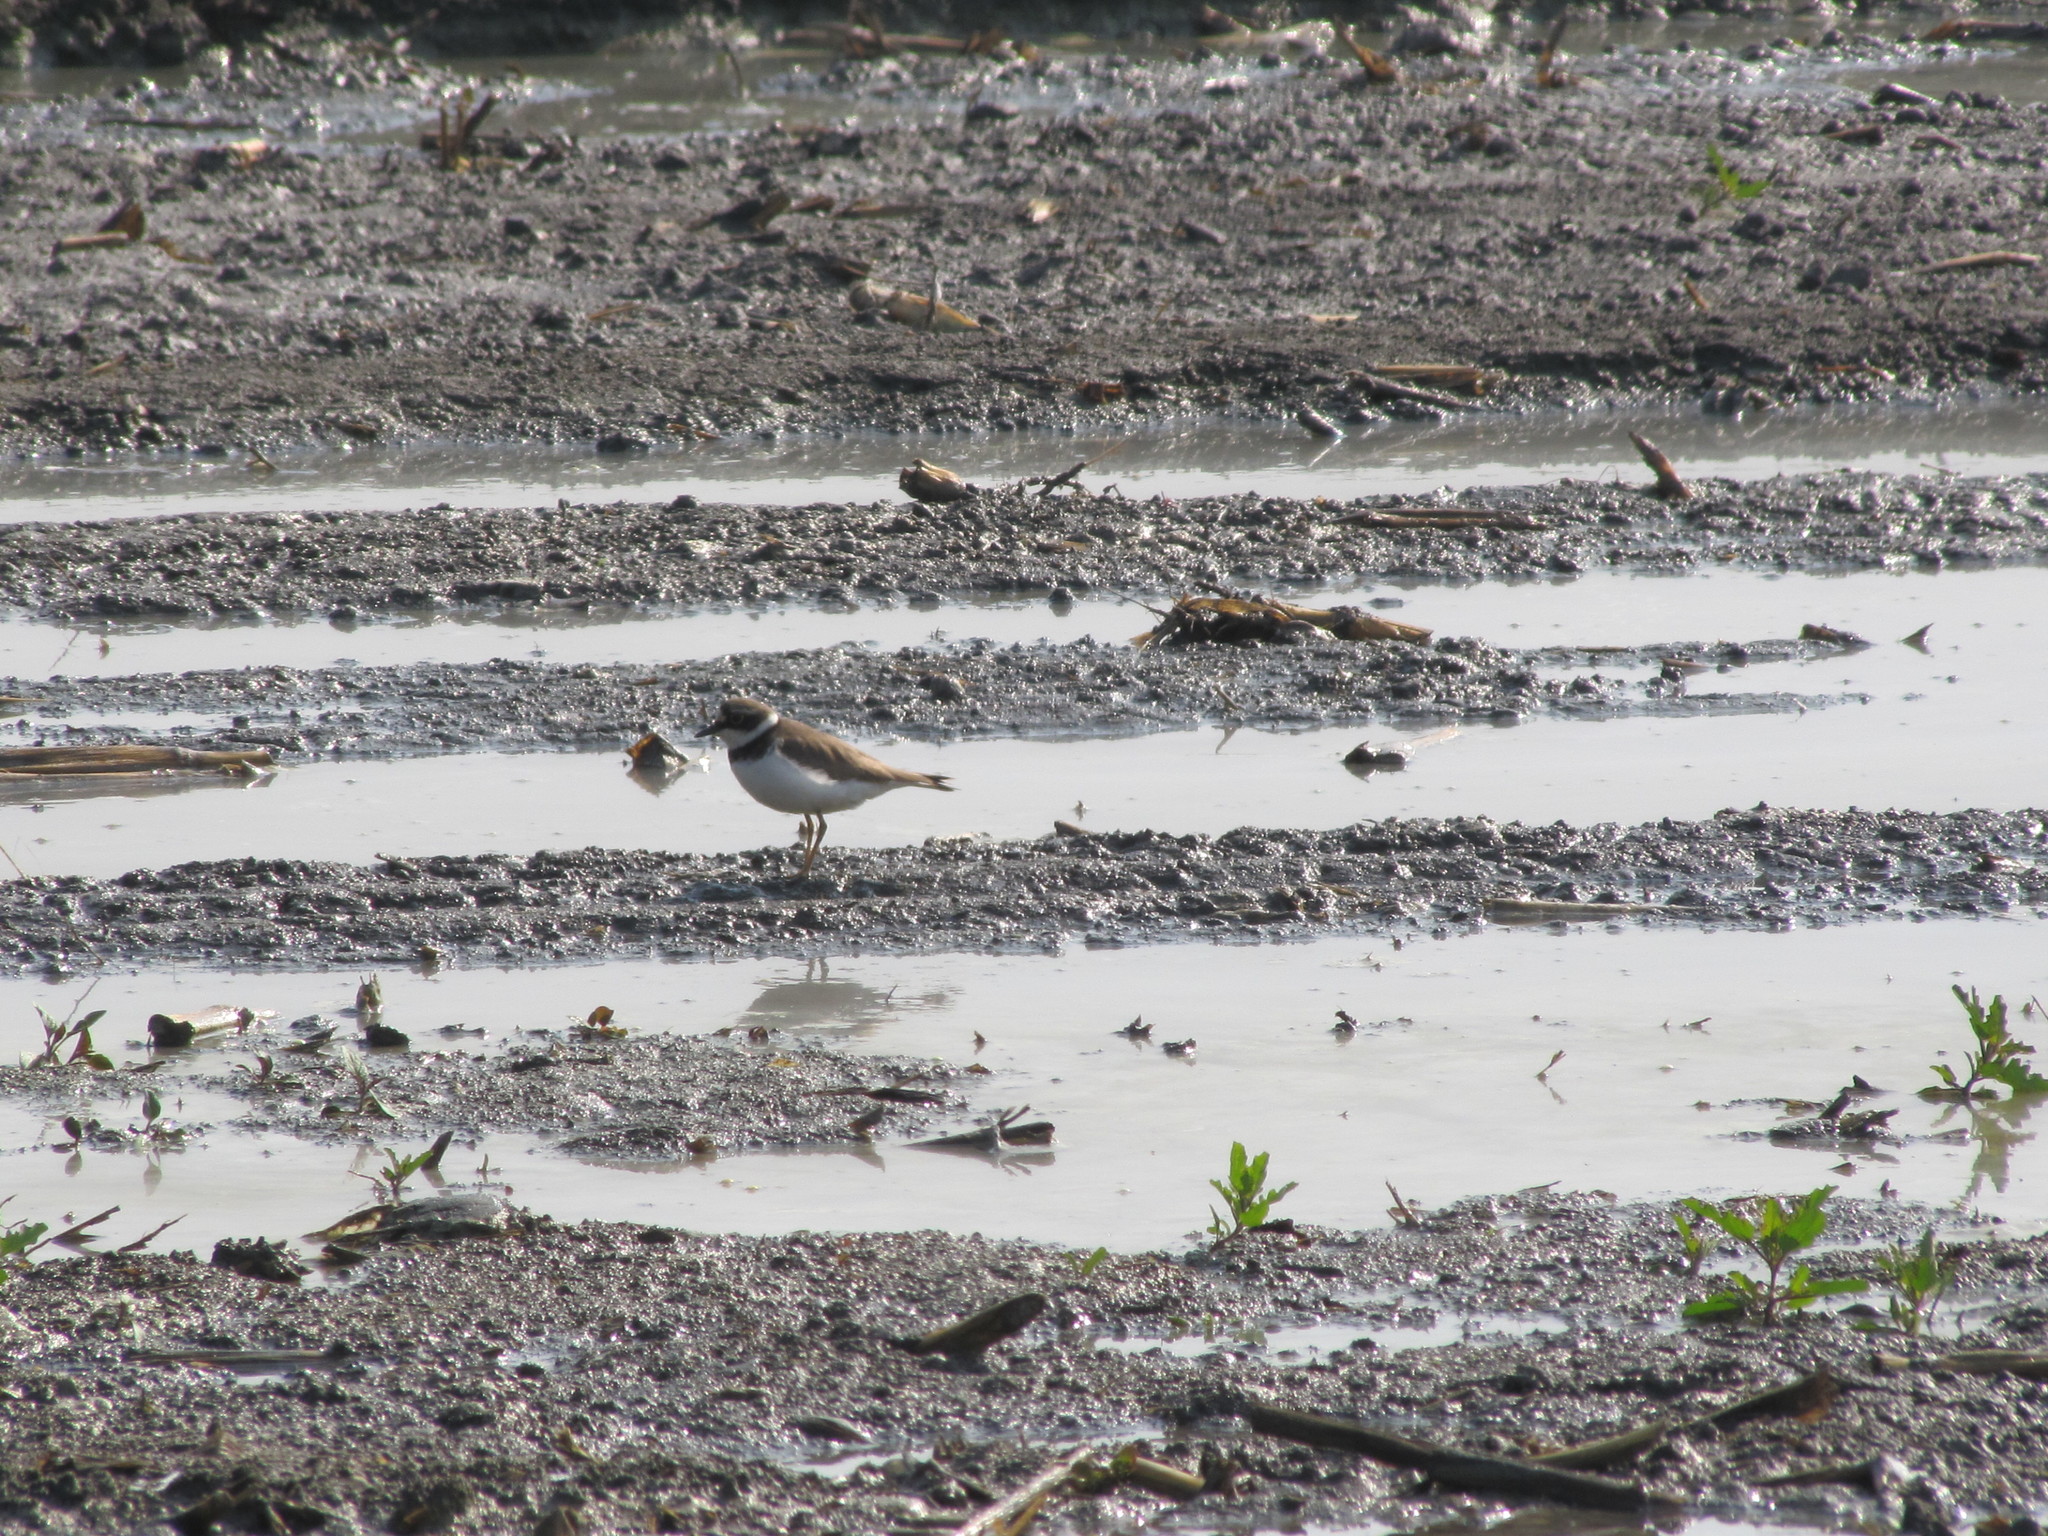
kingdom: Animalia
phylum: Chordata
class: Aves
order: Charadriiformes
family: Charadriidae
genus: Charadrius
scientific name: Charadrius dubius
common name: Little ringed plover
